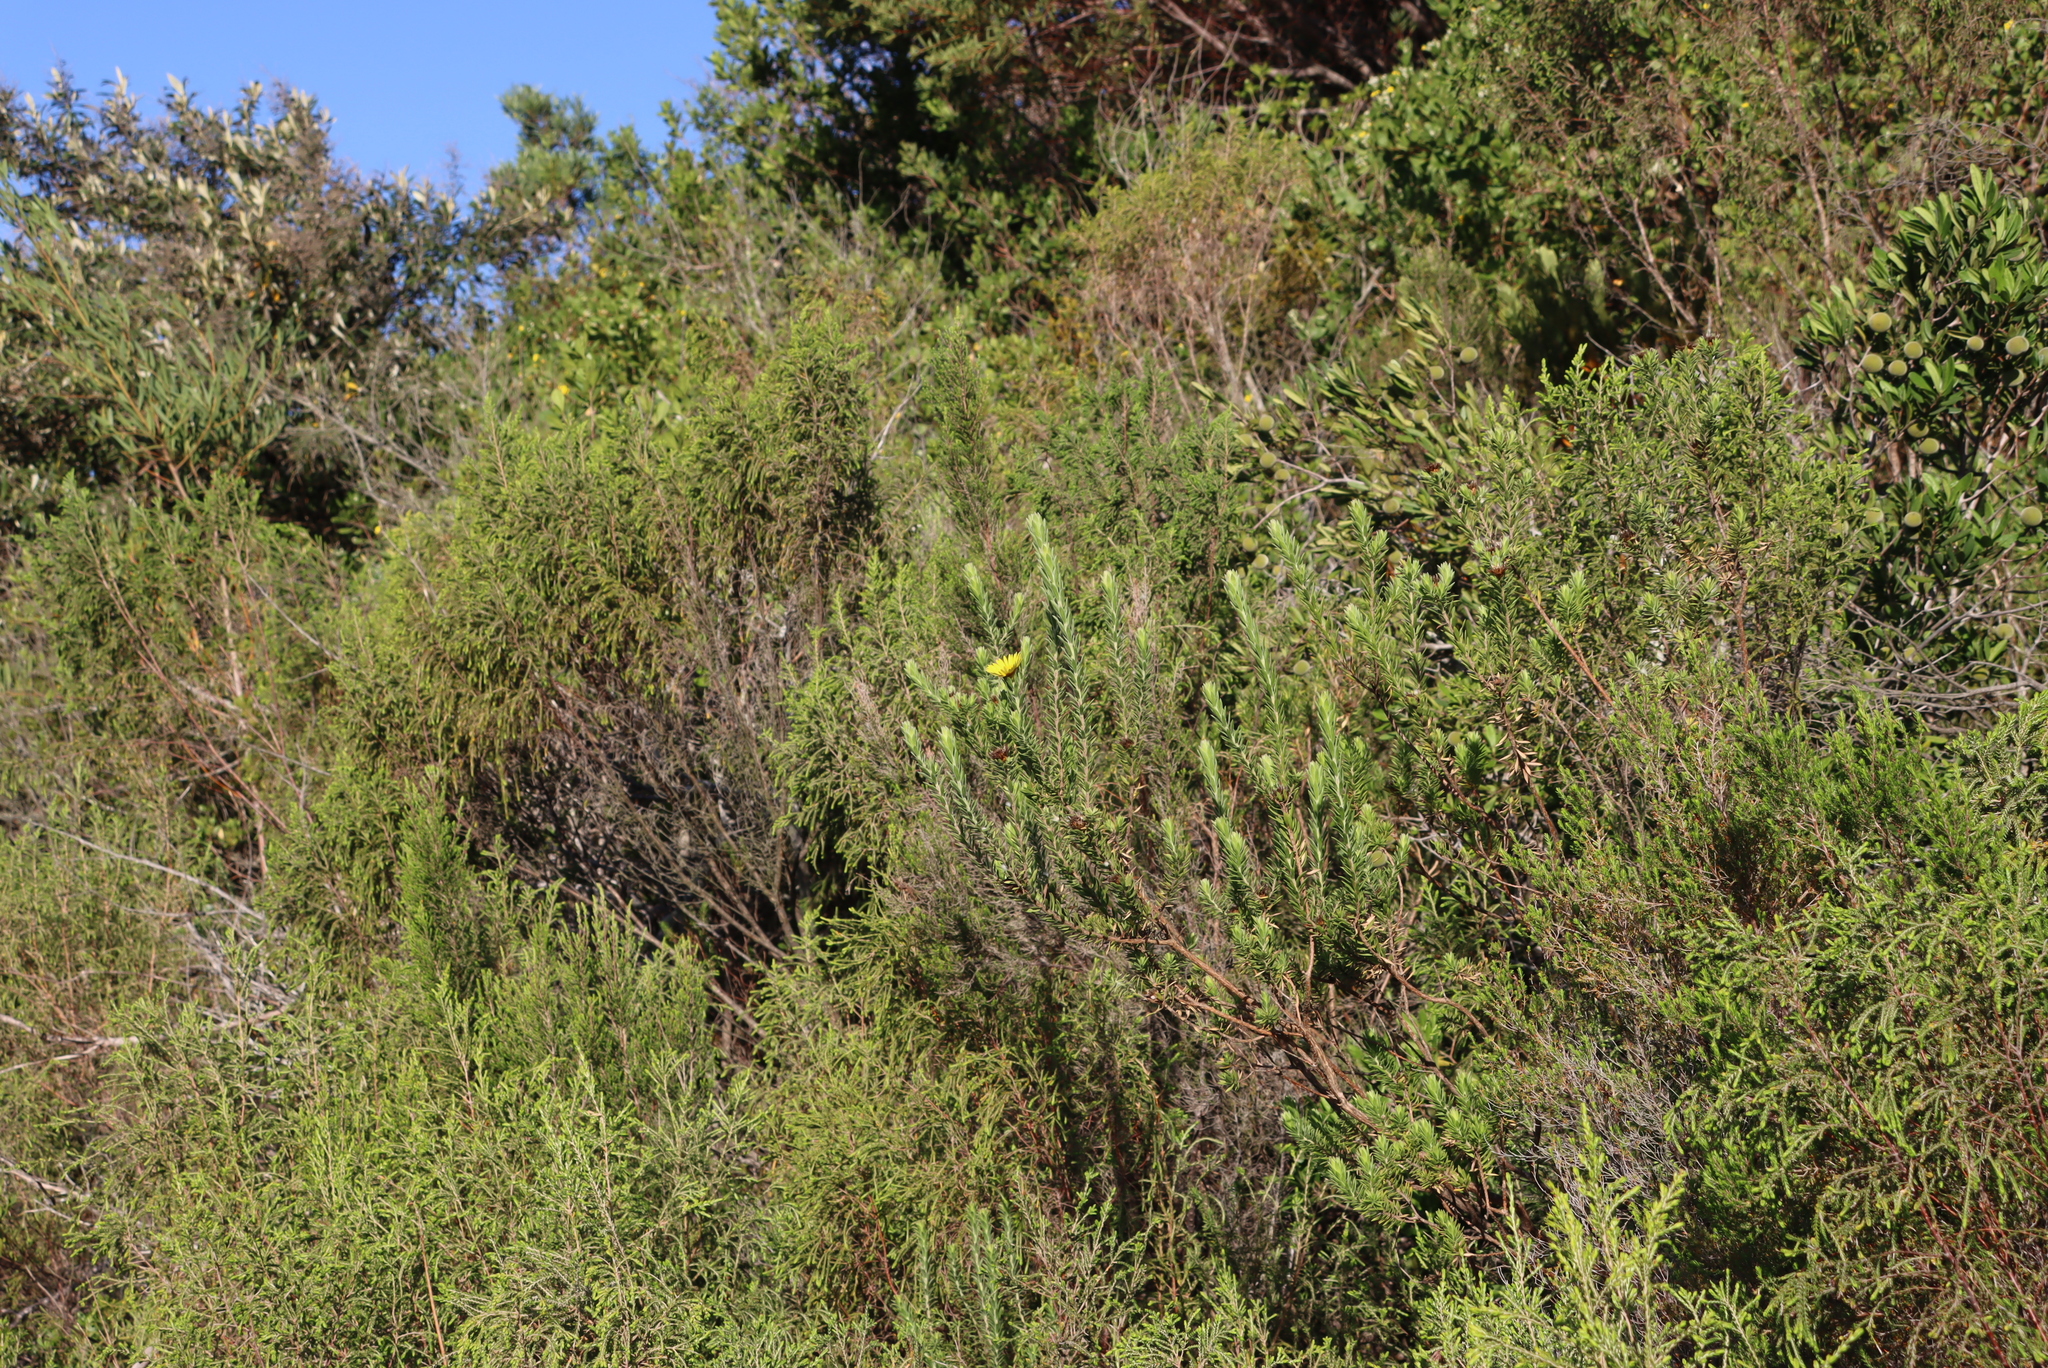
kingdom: Plantae
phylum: Tracheophyta
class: Magnoliopsida
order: Asterales
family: Asteraceae
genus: Oedera
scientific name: Oedera calycina
